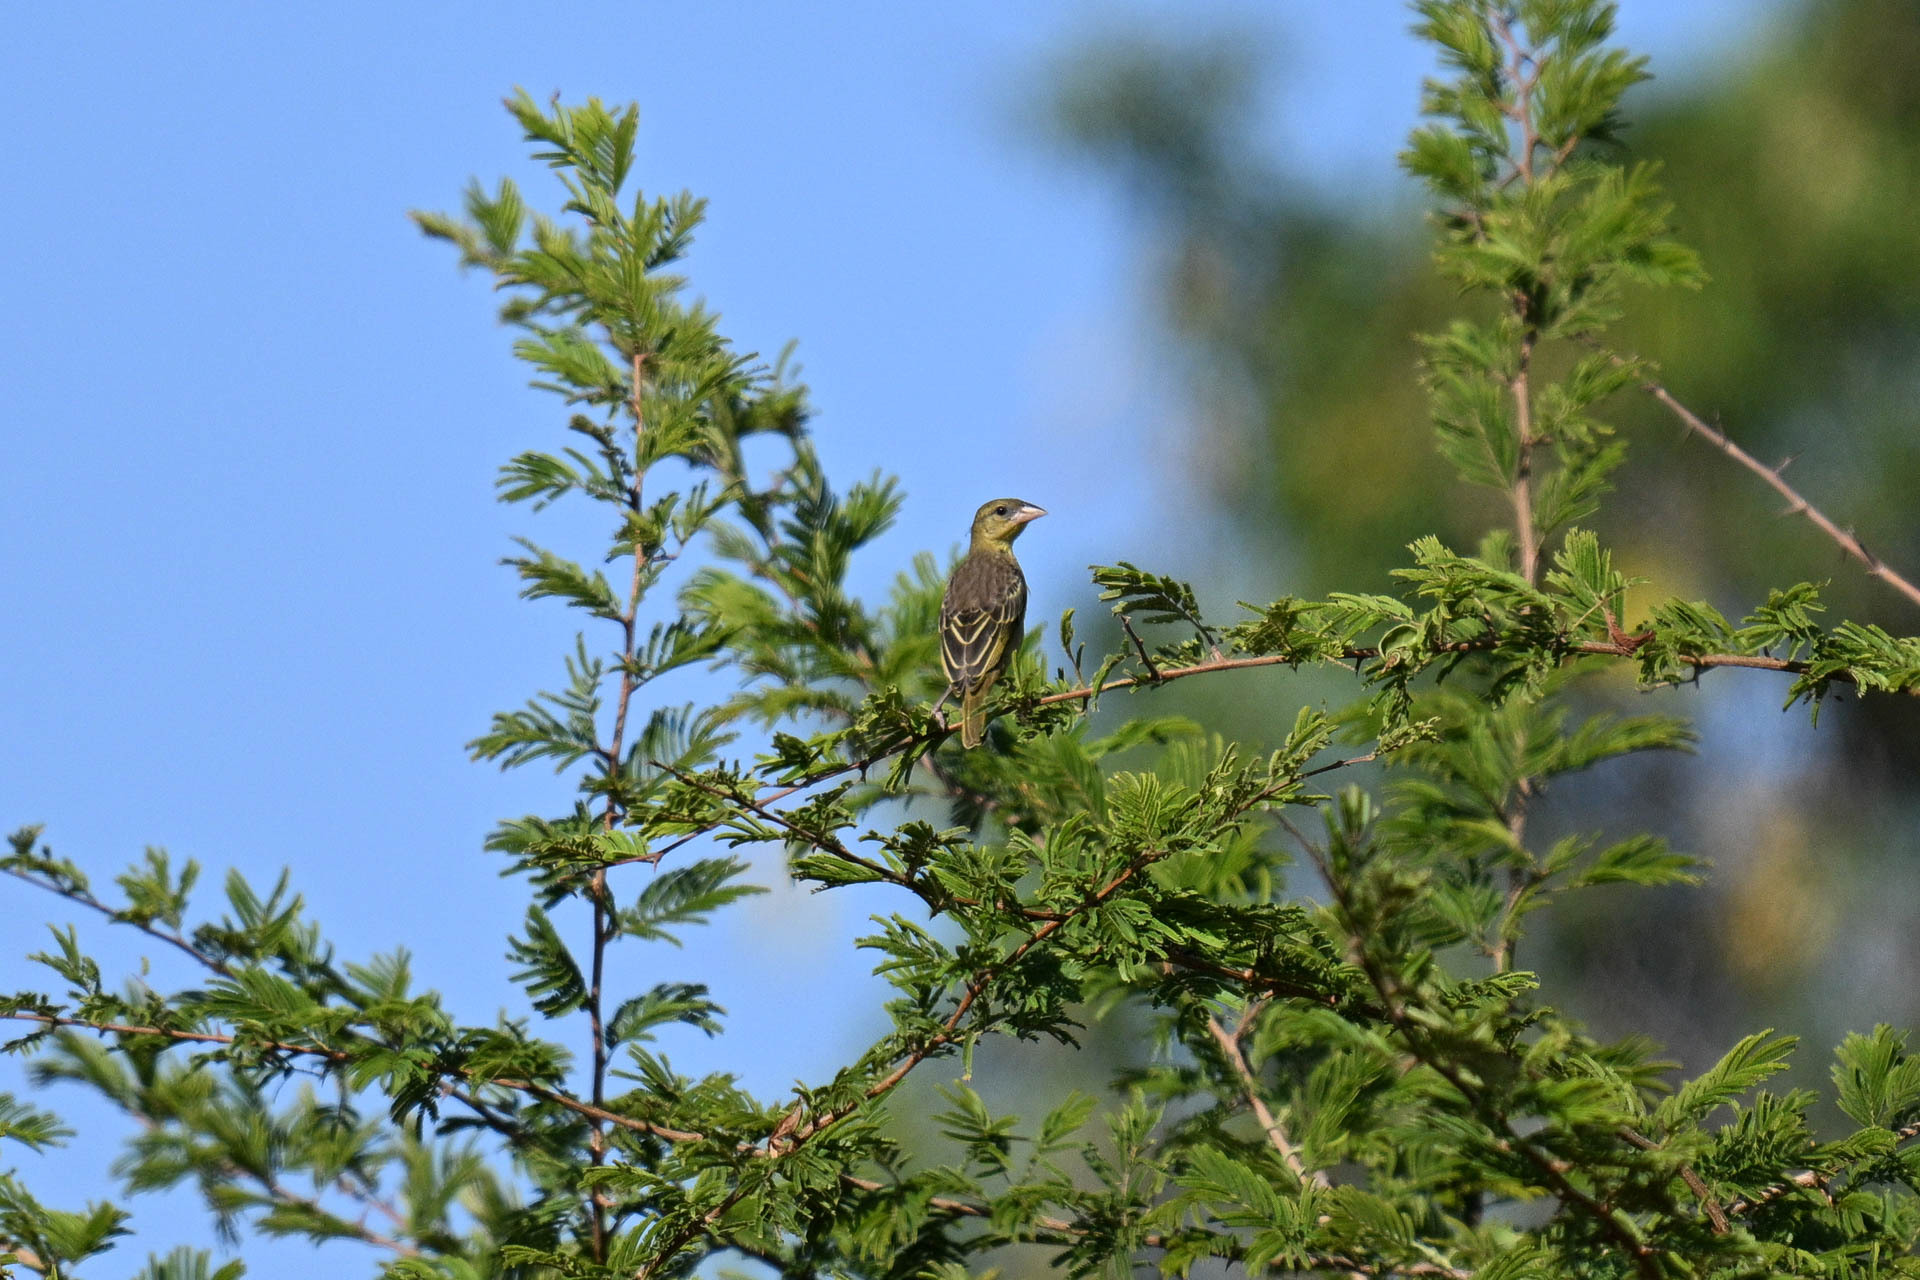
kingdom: Animalia
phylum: Chordata
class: Aves
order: Passeriformes
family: Ploceidae
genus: Ploceus
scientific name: Ploceus cucullatus
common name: Village weaver
